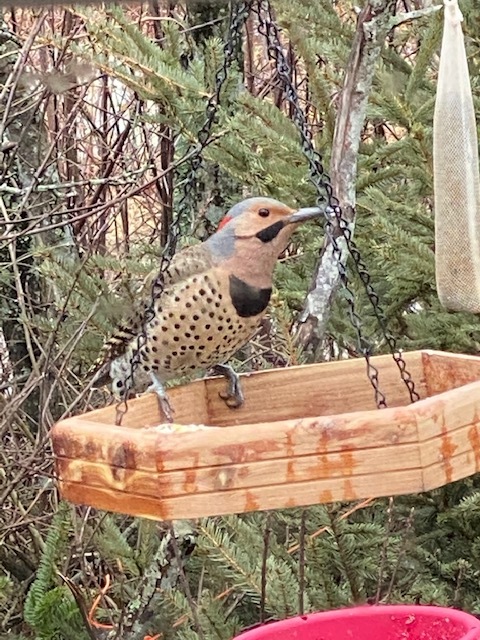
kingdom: Animalia
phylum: Chordata
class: Aves
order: Piciformes
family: Picidae
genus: Colaptes
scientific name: Colaptes auratus
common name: Northern flicker
